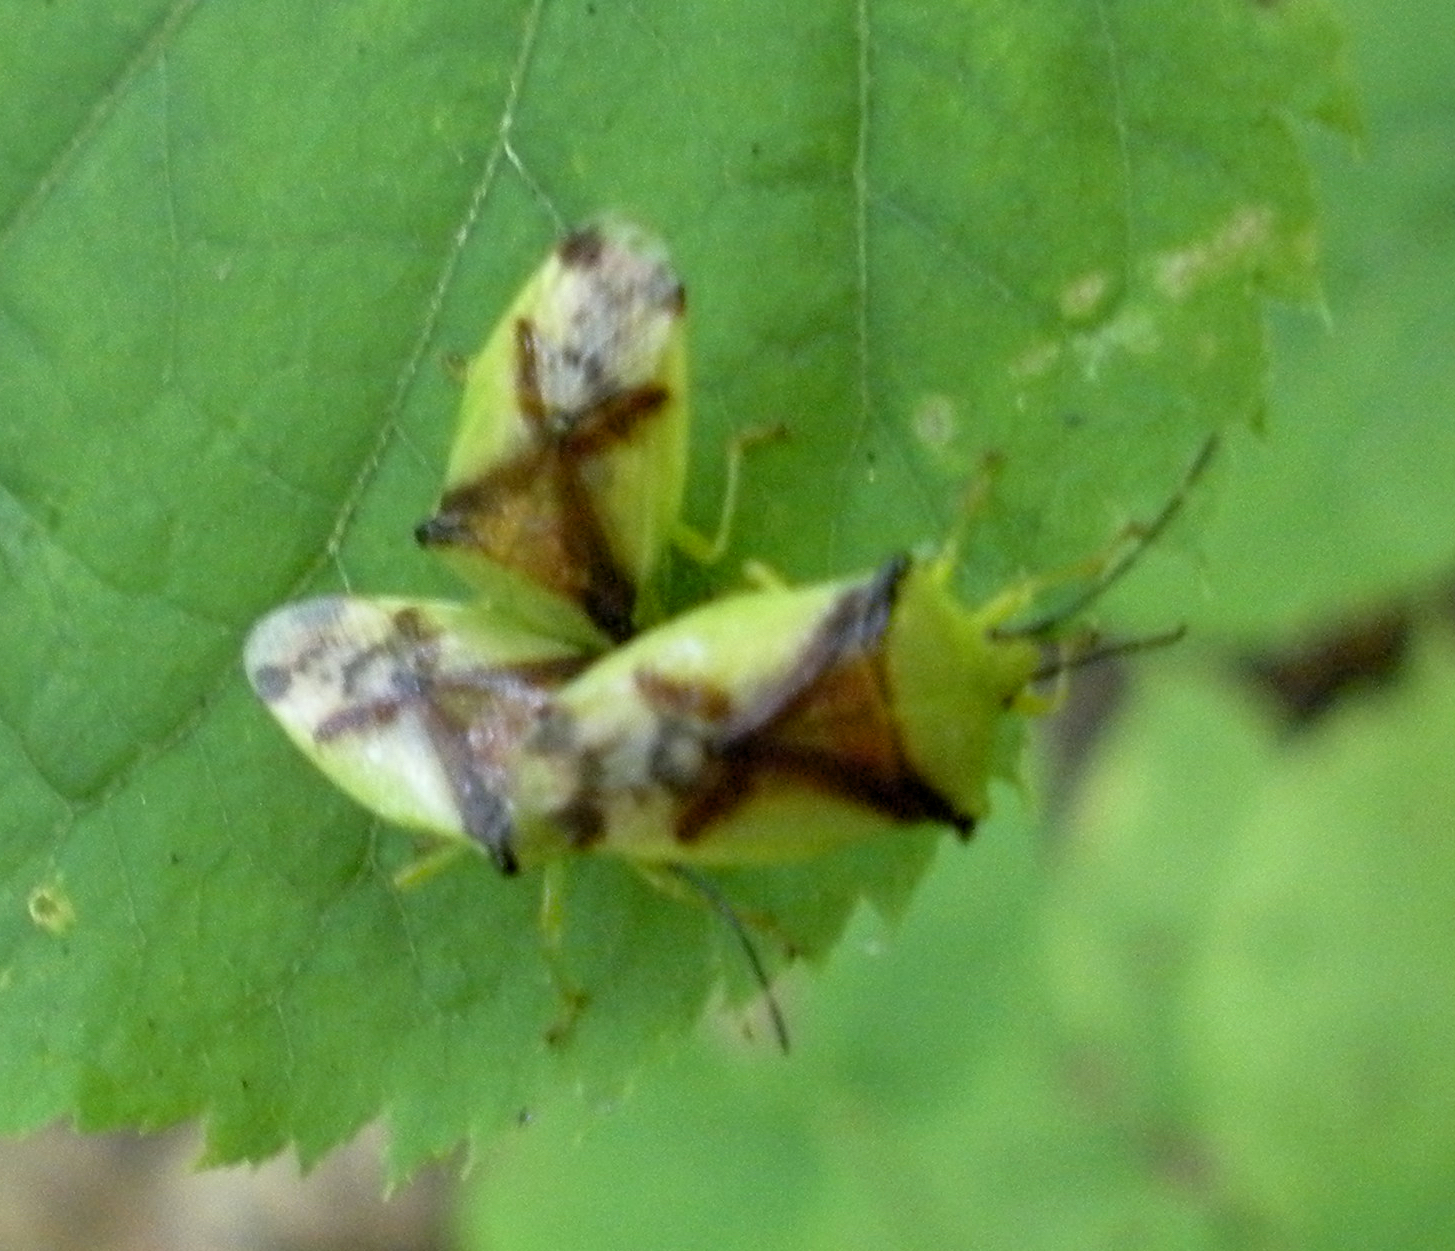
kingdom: Animalia
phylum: Arthropoda
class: Insecta
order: Hemiptera
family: Acanthosomatidae
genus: Elasmostethus
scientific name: Elasmostethus atricornis
